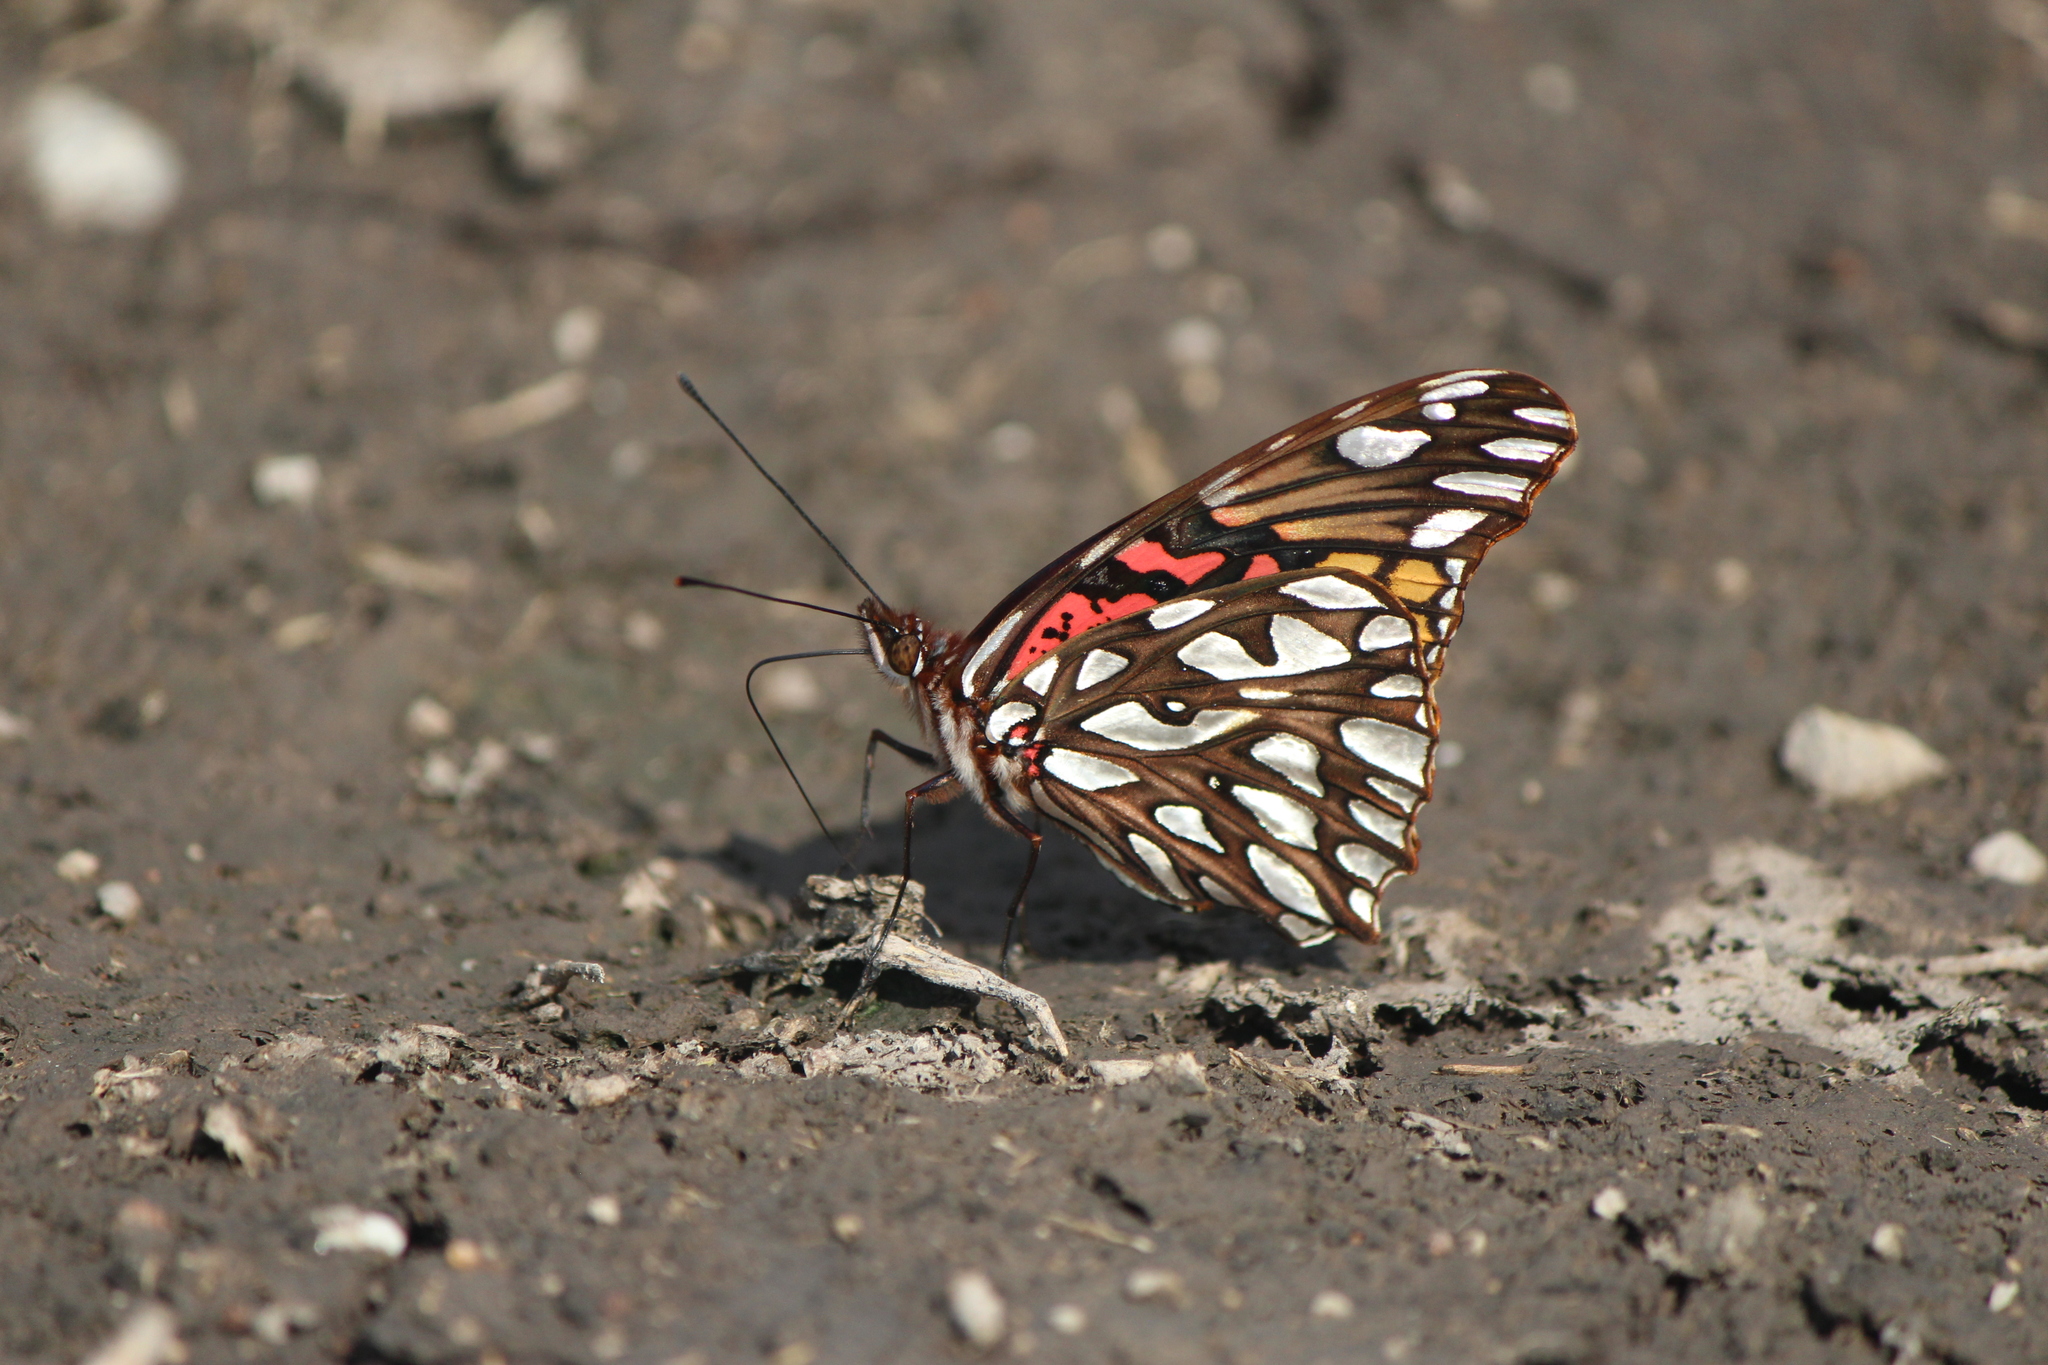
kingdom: Animalia
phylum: Arthropoda
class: Insecta
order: Lepidoptera
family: Nymphalidae
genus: Dione
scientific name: Dione moneta
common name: Mexican silverspot
